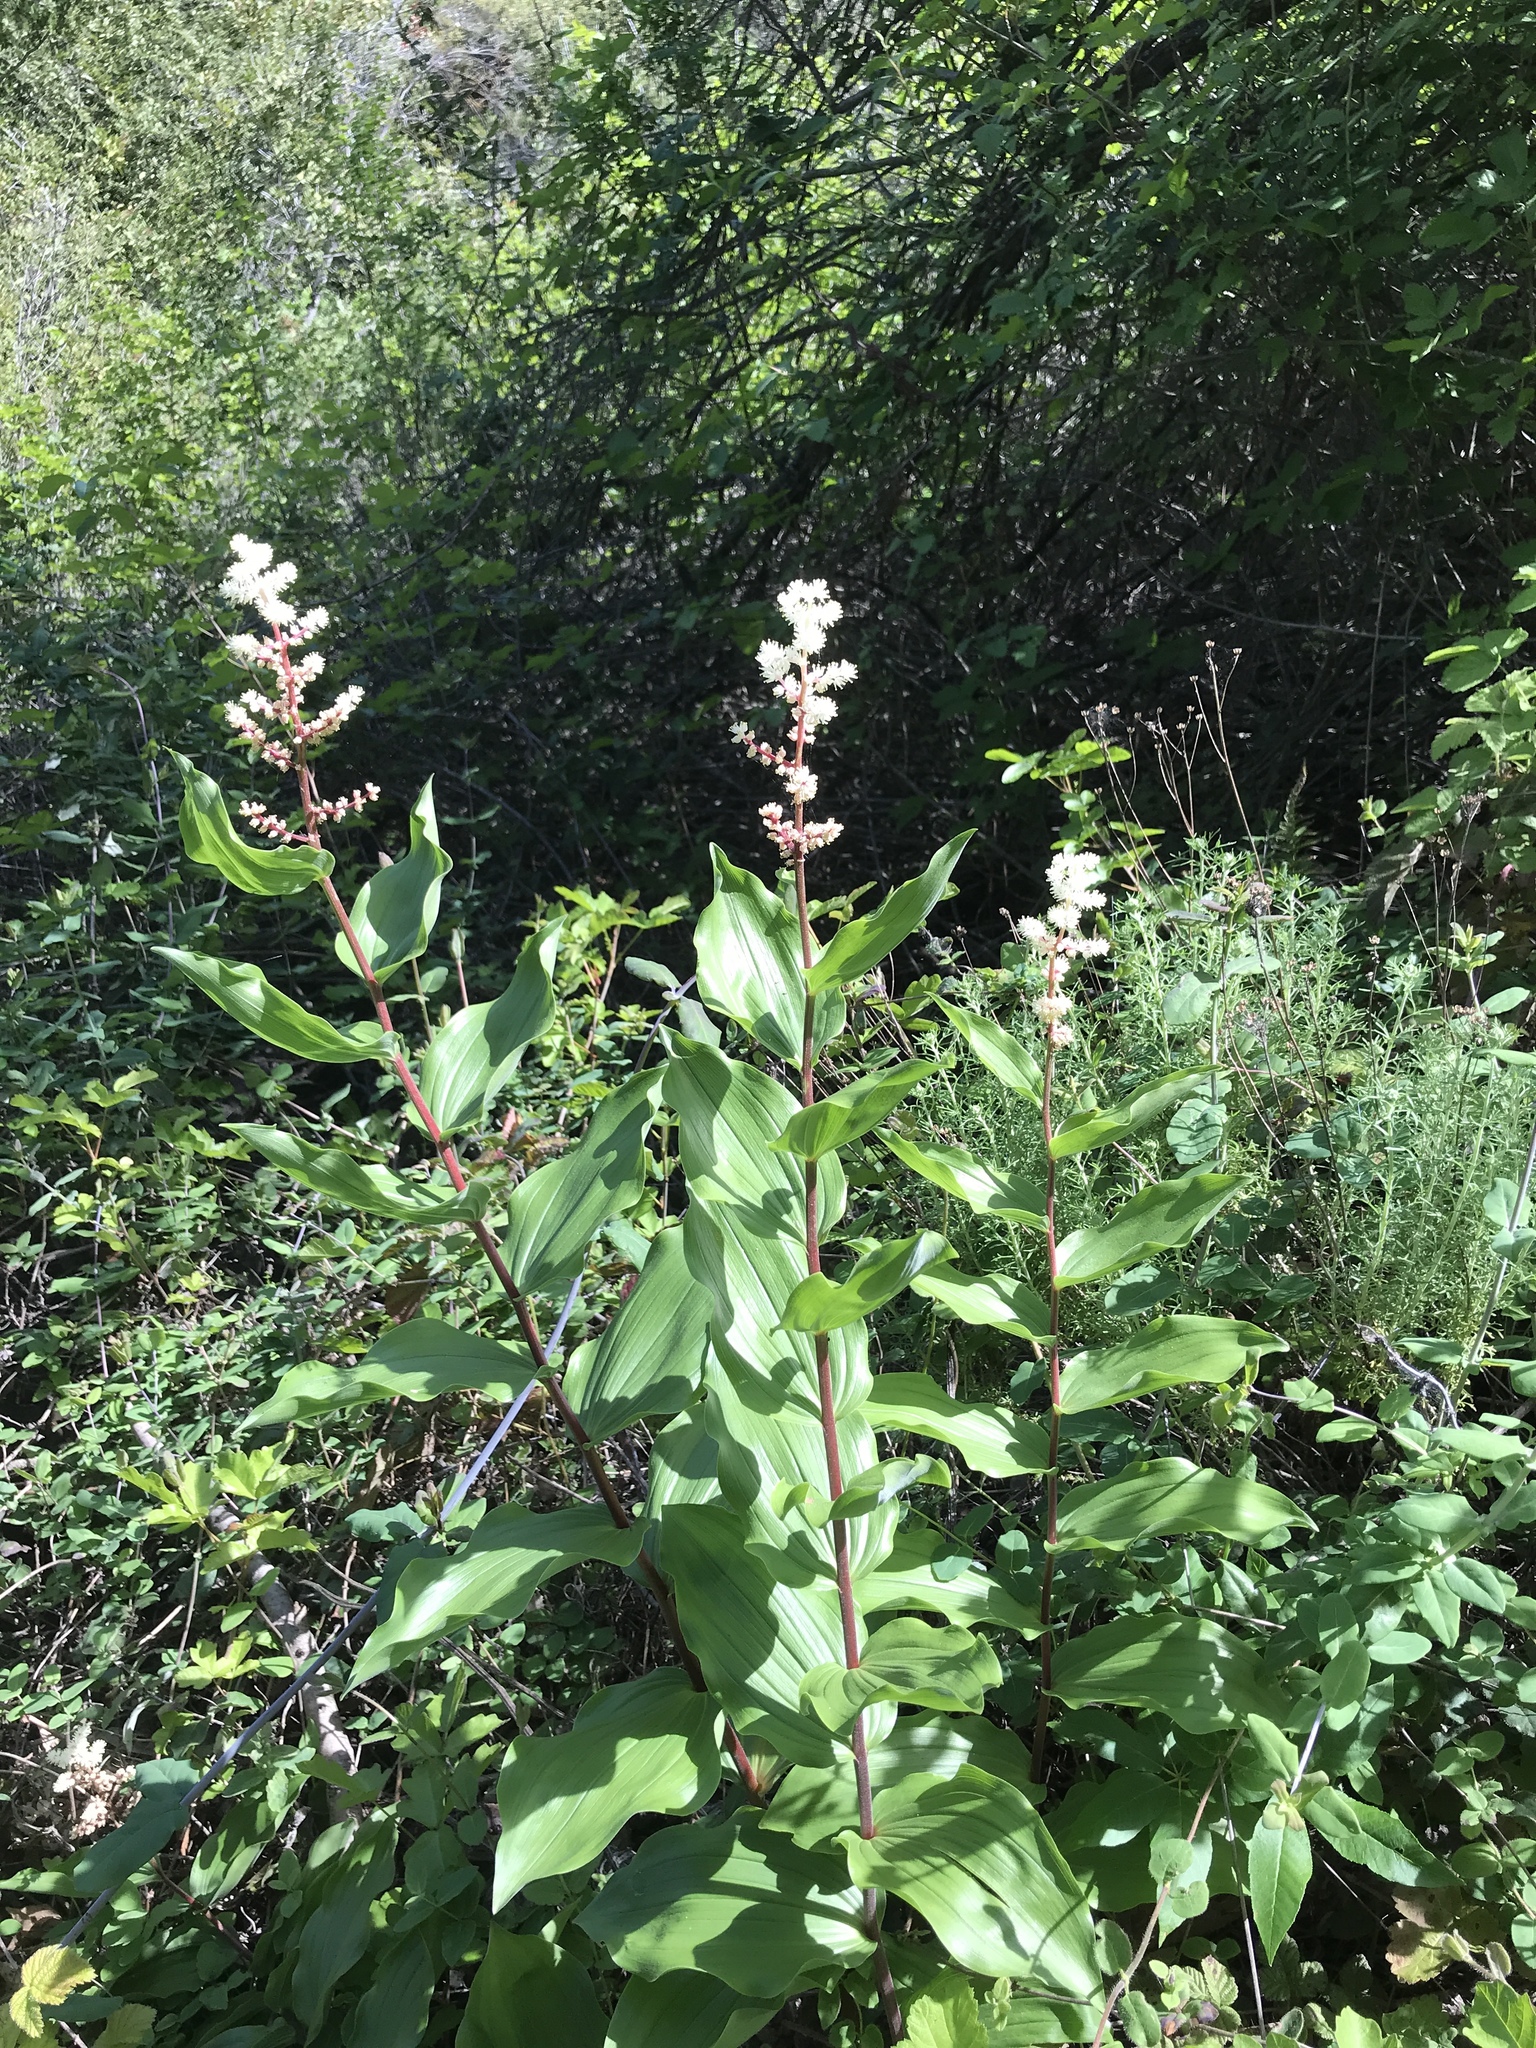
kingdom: Plantae
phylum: Tracheophyta
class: Liliopsida
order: Asparagales
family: Asparagaceae
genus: Maianthemum
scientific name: Maianthemum racemosum
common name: False spikenard
